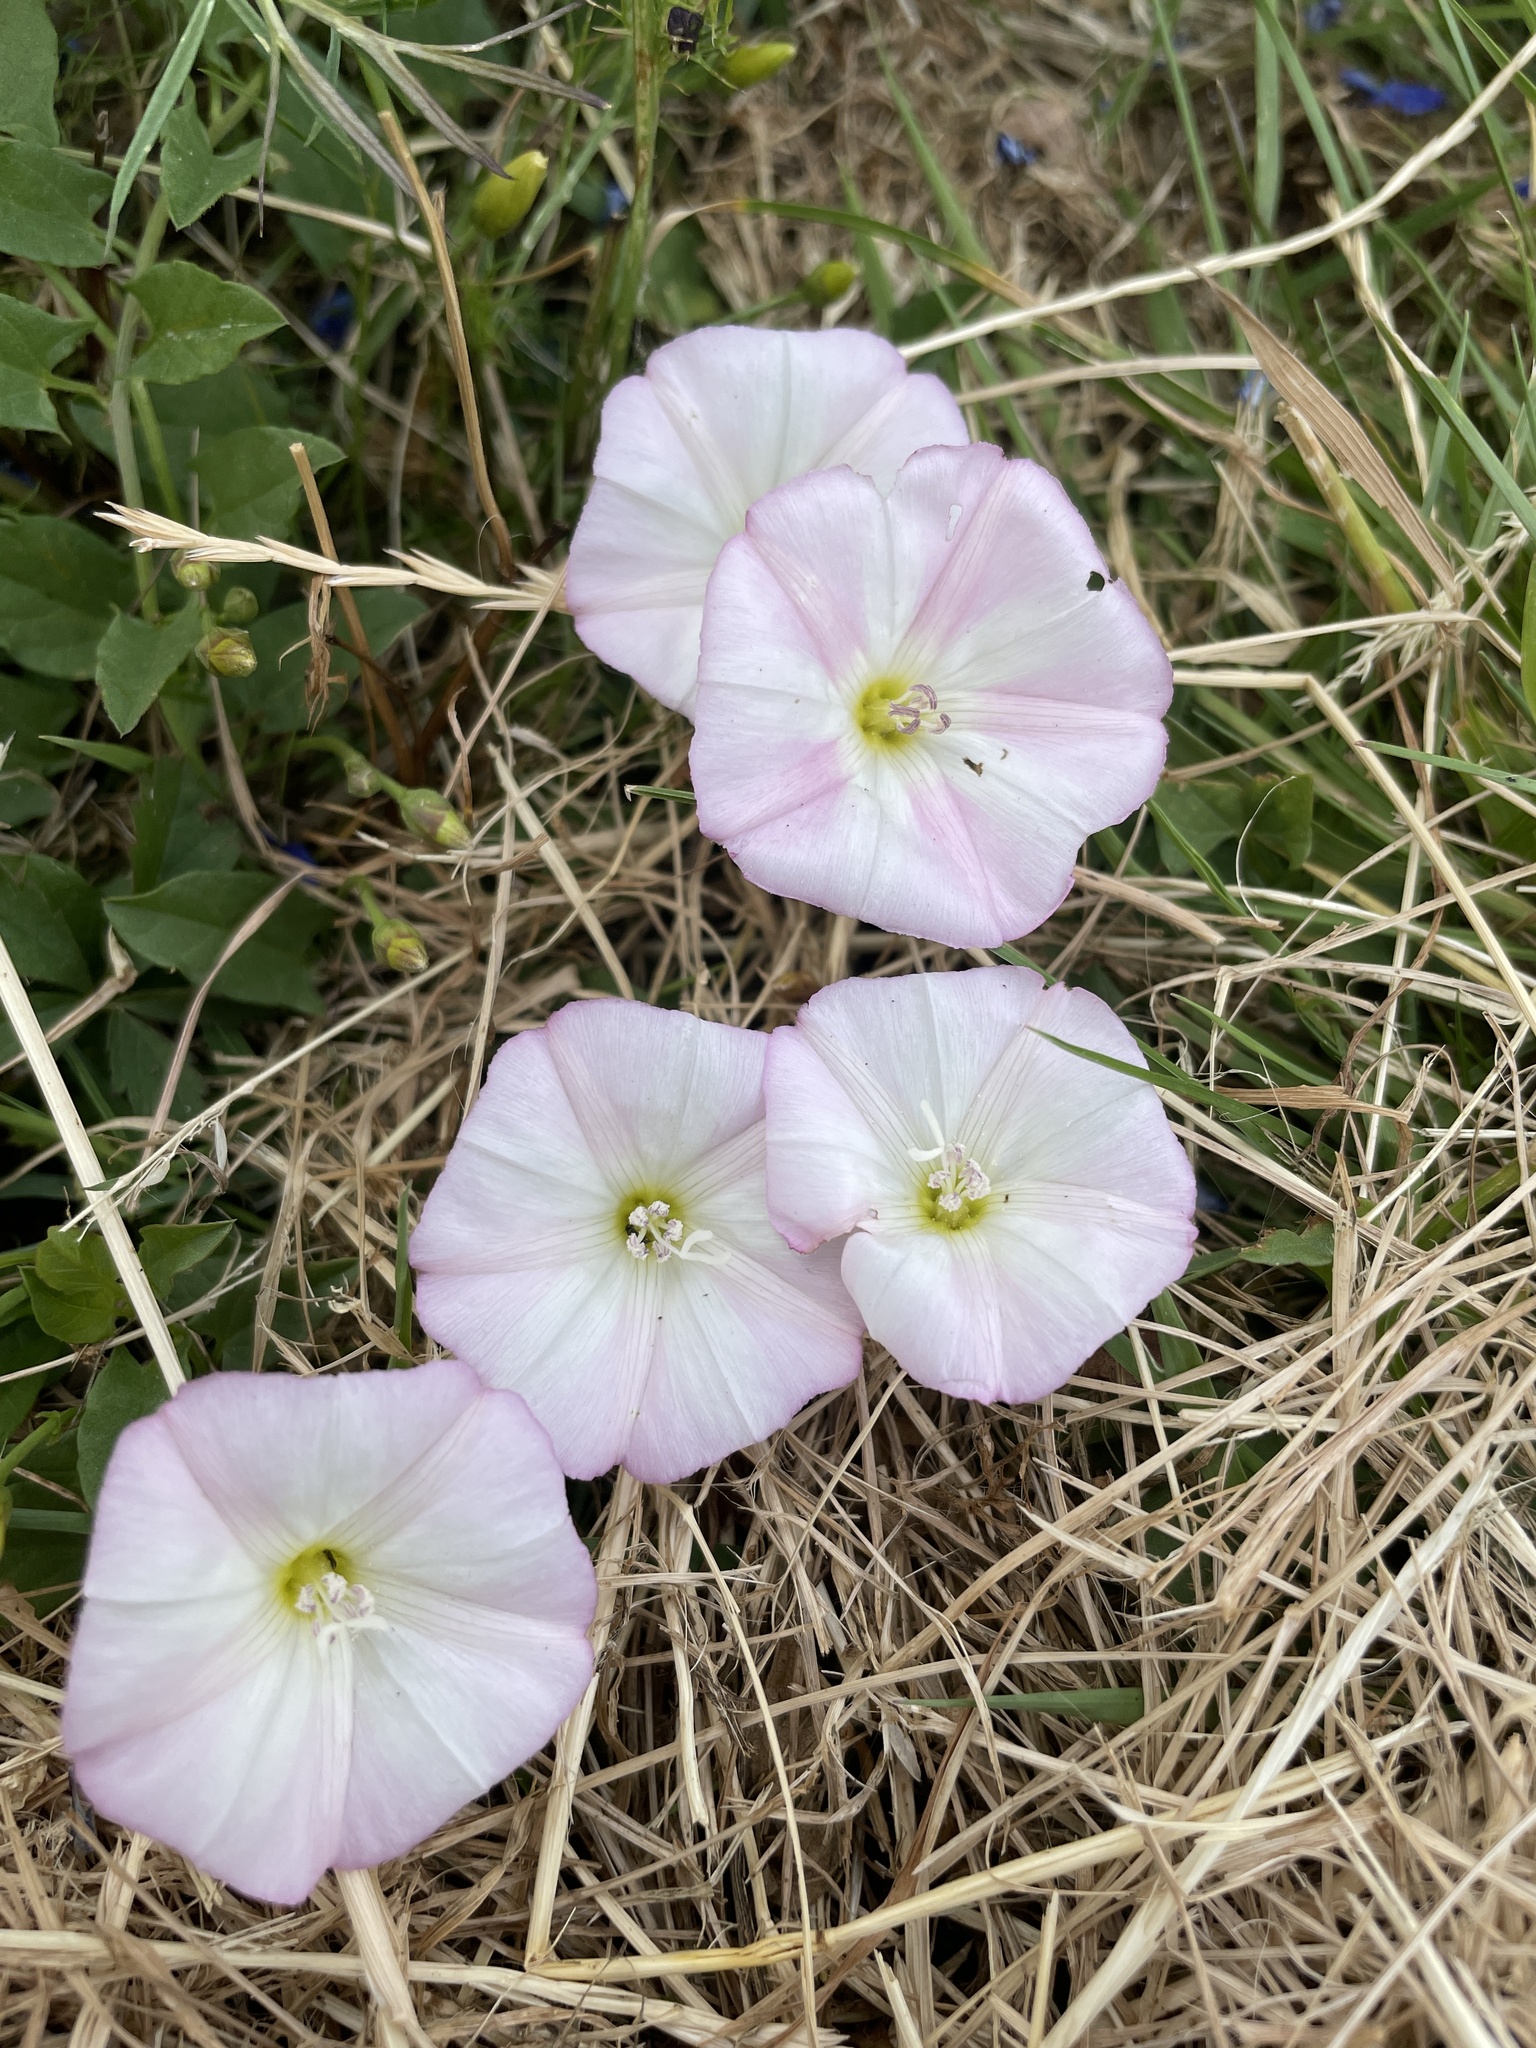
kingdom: Plantae
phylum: Tracheophyta
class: Magnoliopsida
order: Solanales
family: Convolvulaceae
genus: Convolvulus
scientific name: Convolvulus arvensis
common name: Field bindweed
